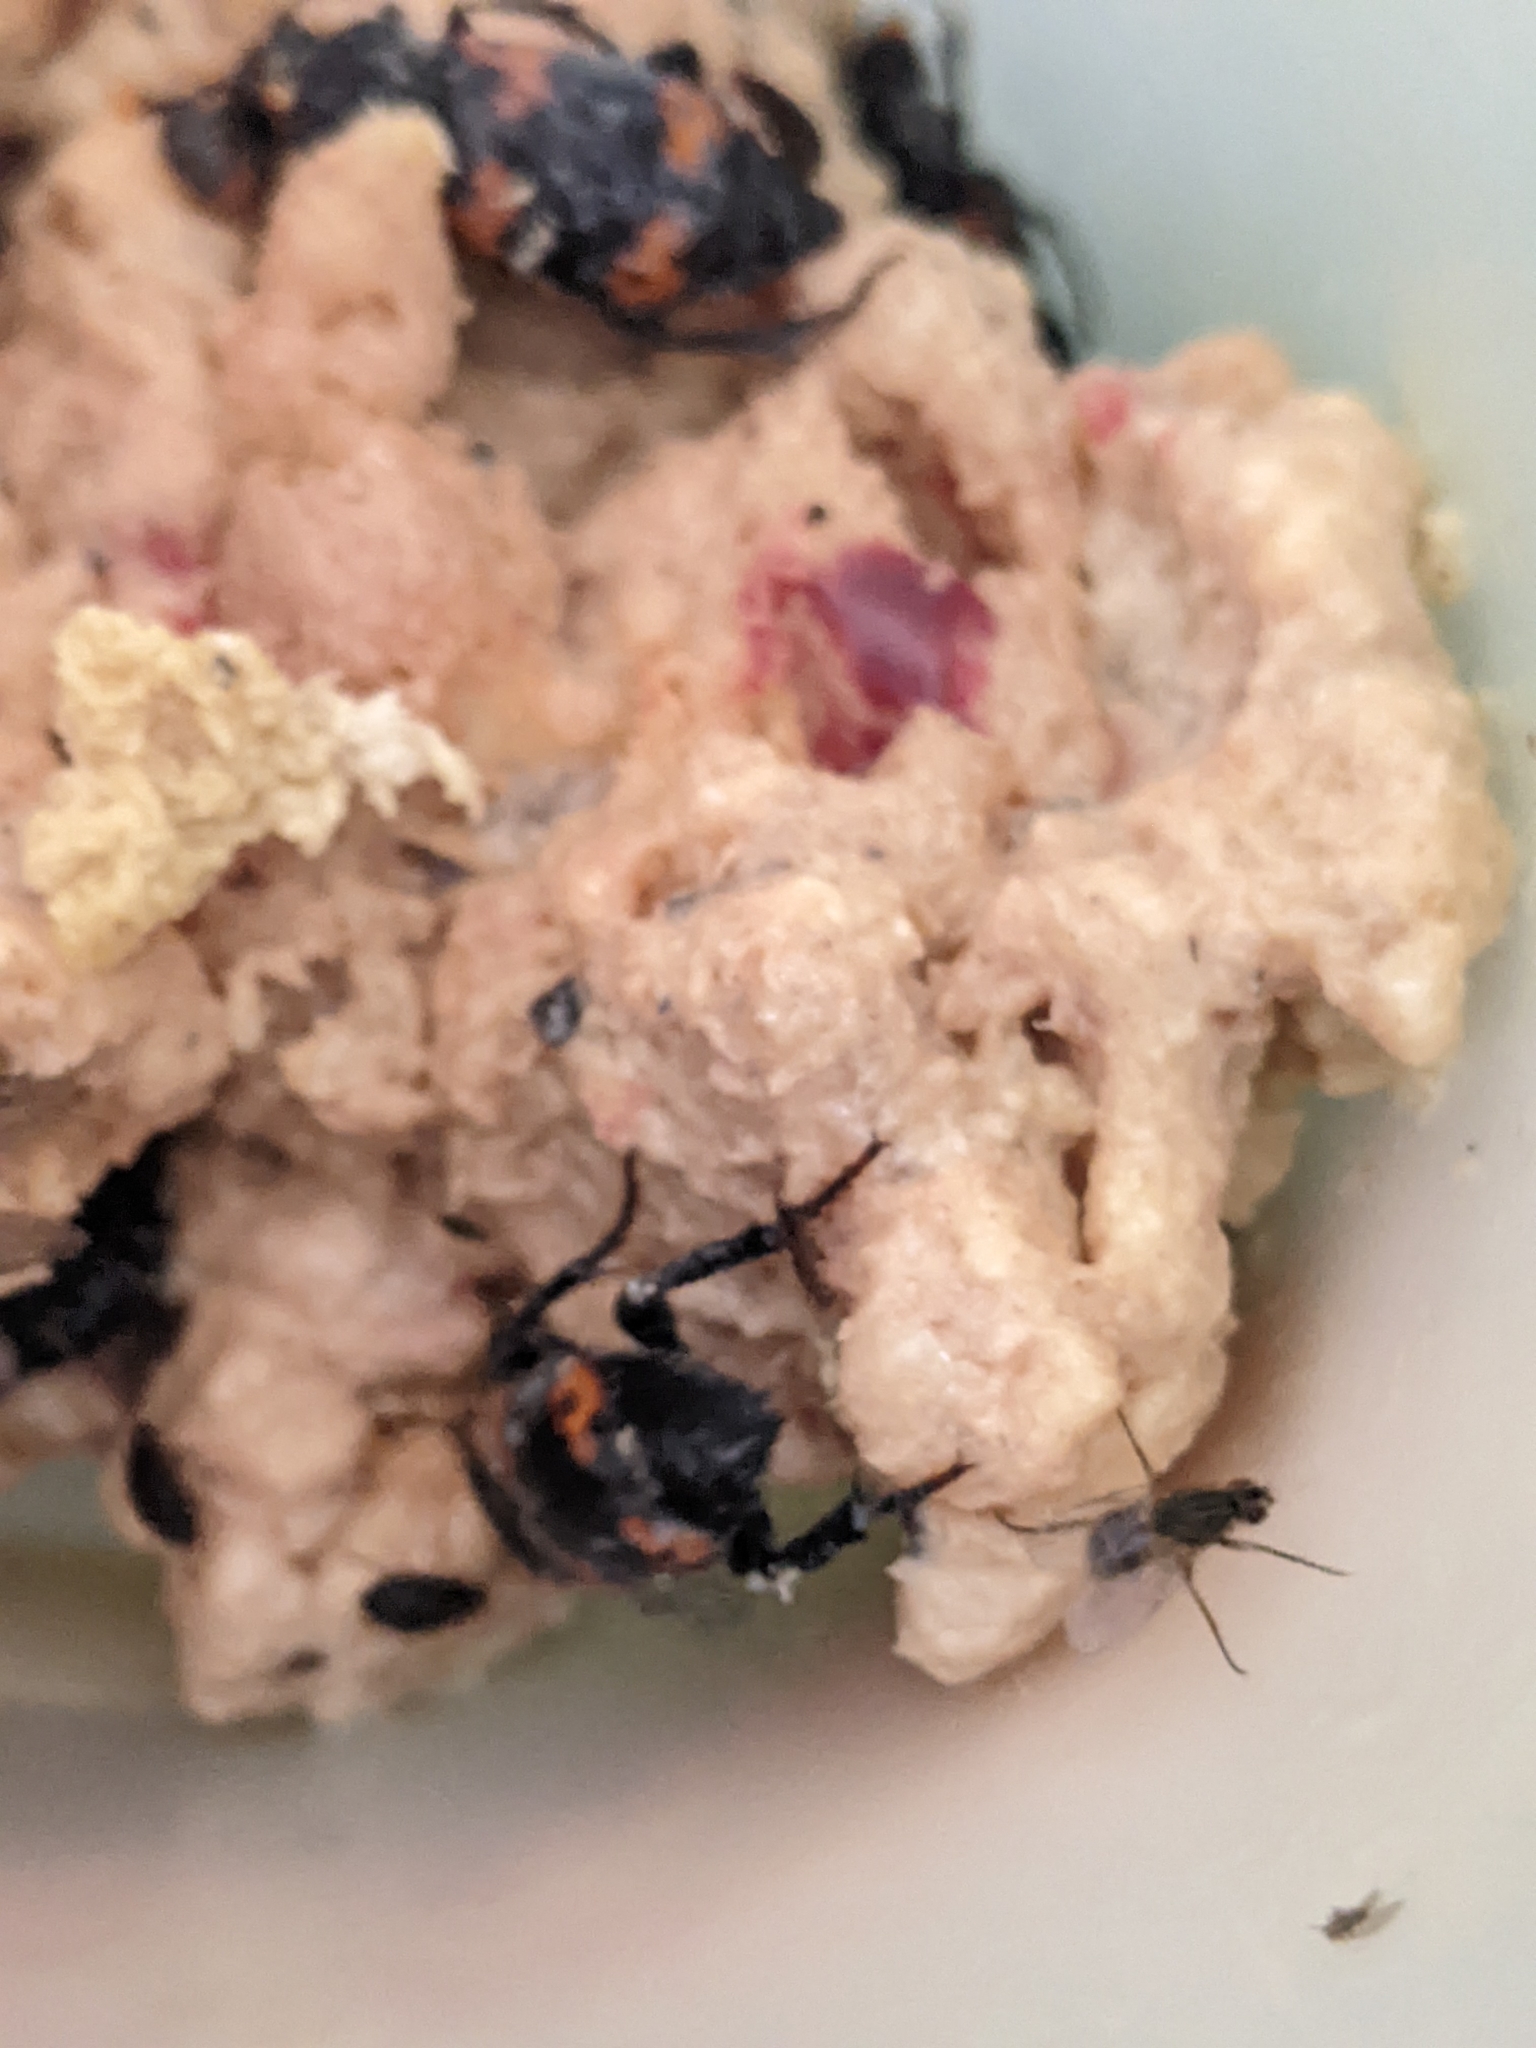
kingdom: Animalia
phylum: Arthropoda
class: Insecta
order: Coleoptera
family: Staphylinidae
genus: Nicrophorus
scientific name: Nicrophorus nepalensis
